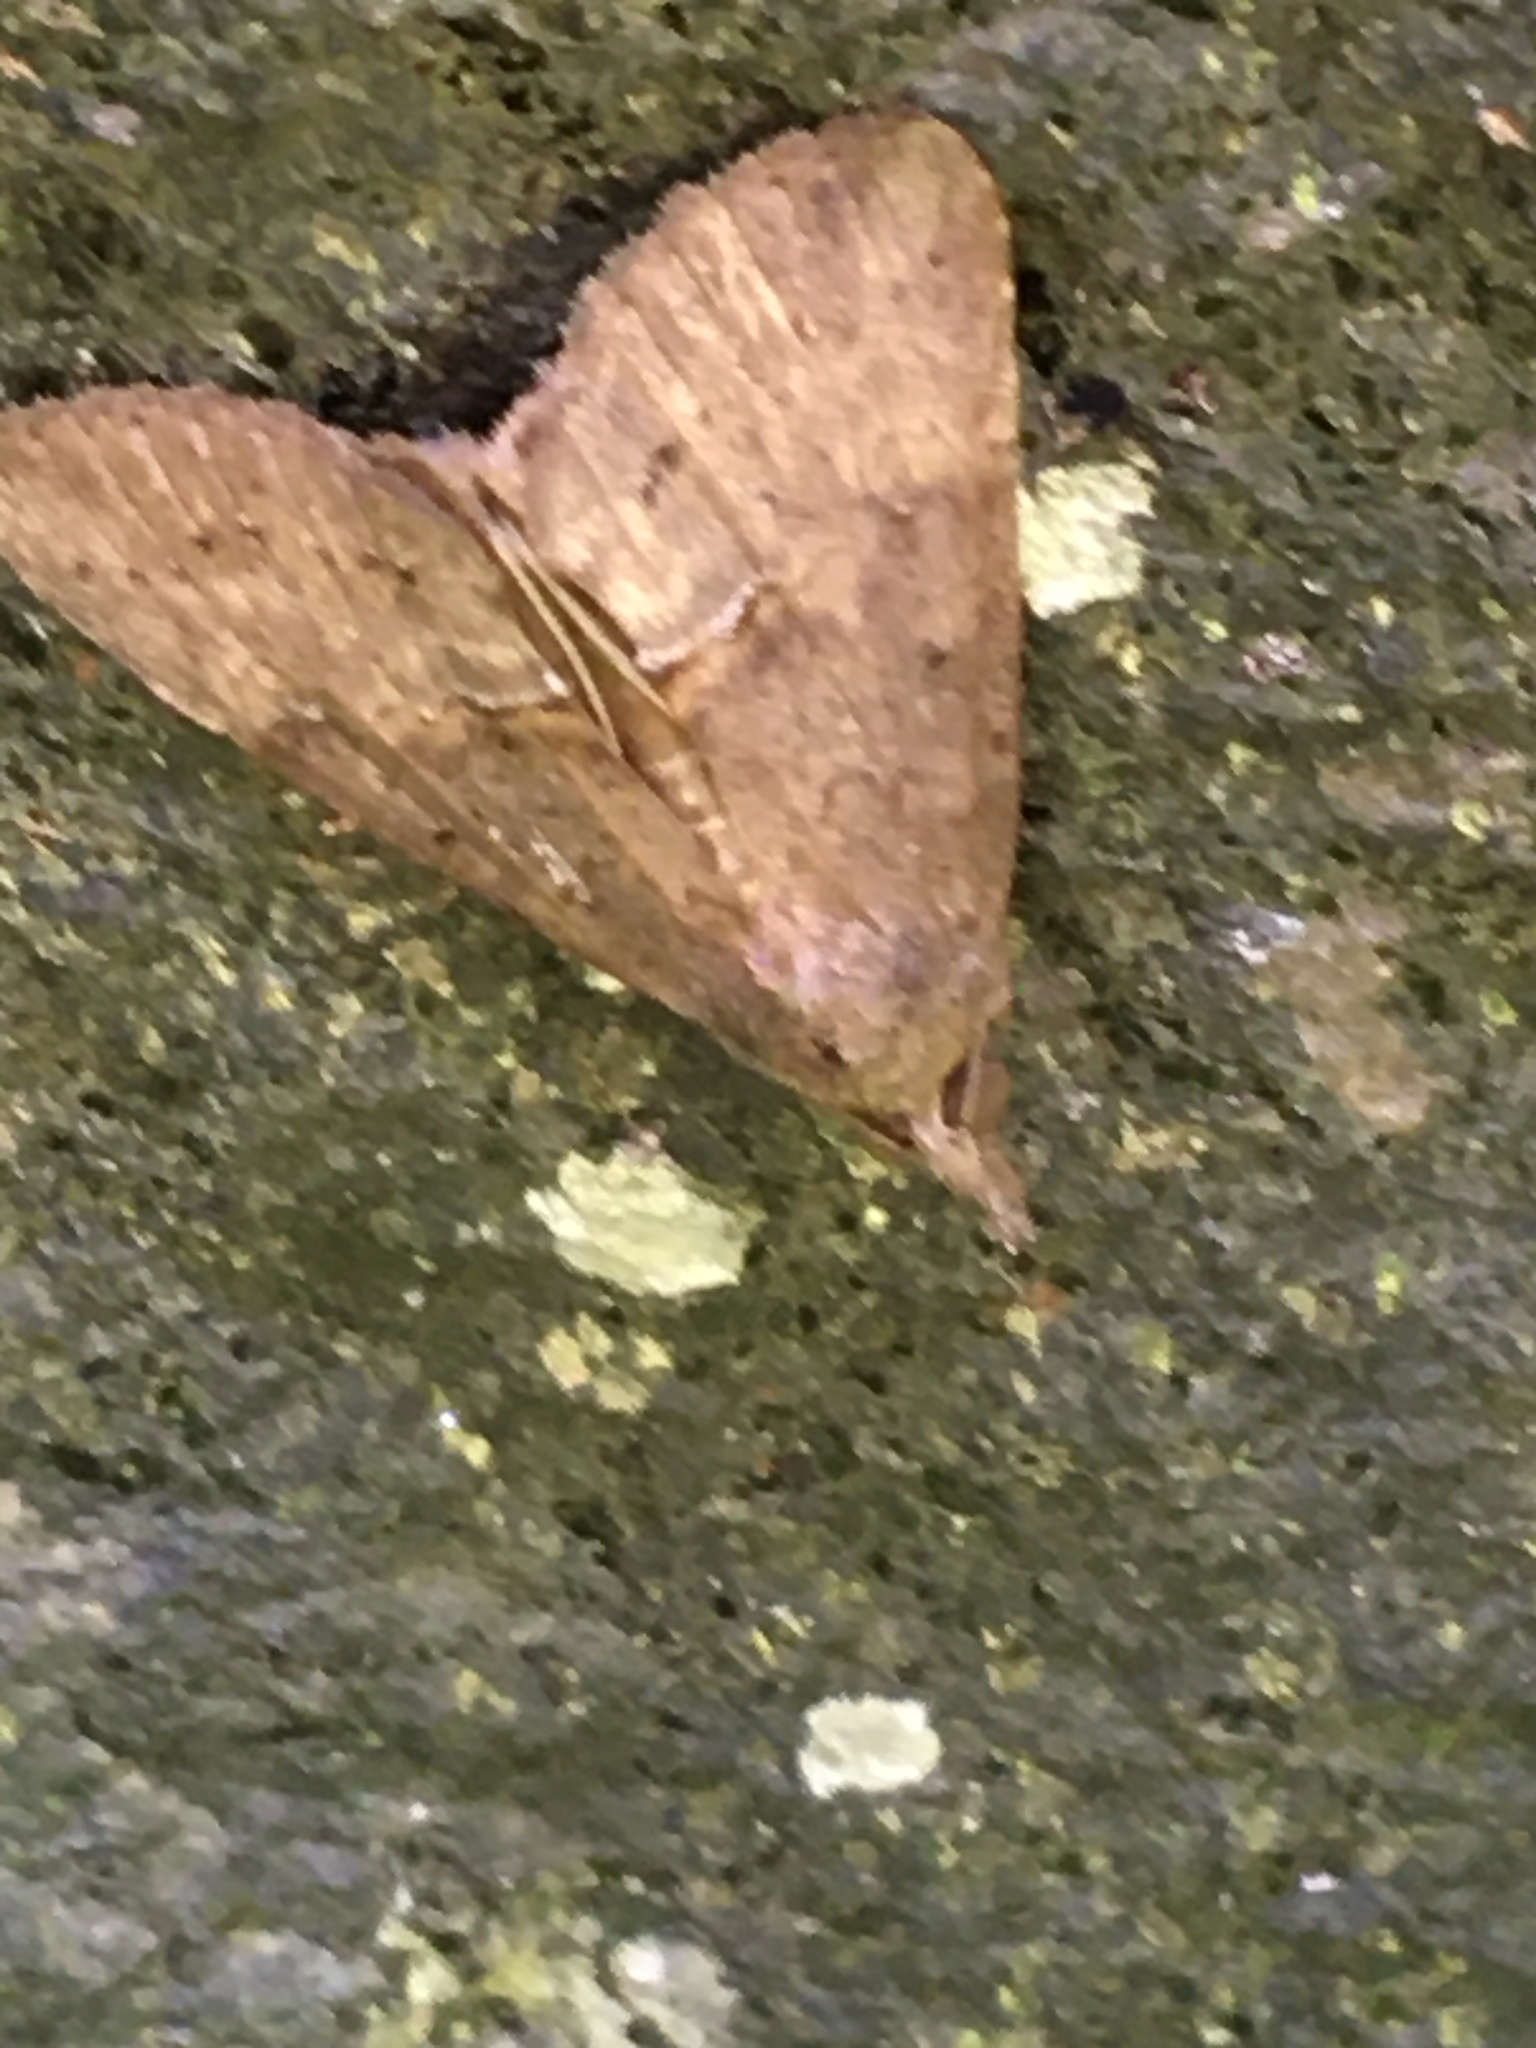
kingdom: Animalia
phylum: Arthropoda
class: Insecta
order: Lepidoptera
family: Erebidae
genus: Hypena
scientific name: Hypena scabra
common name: Green cloverworm
